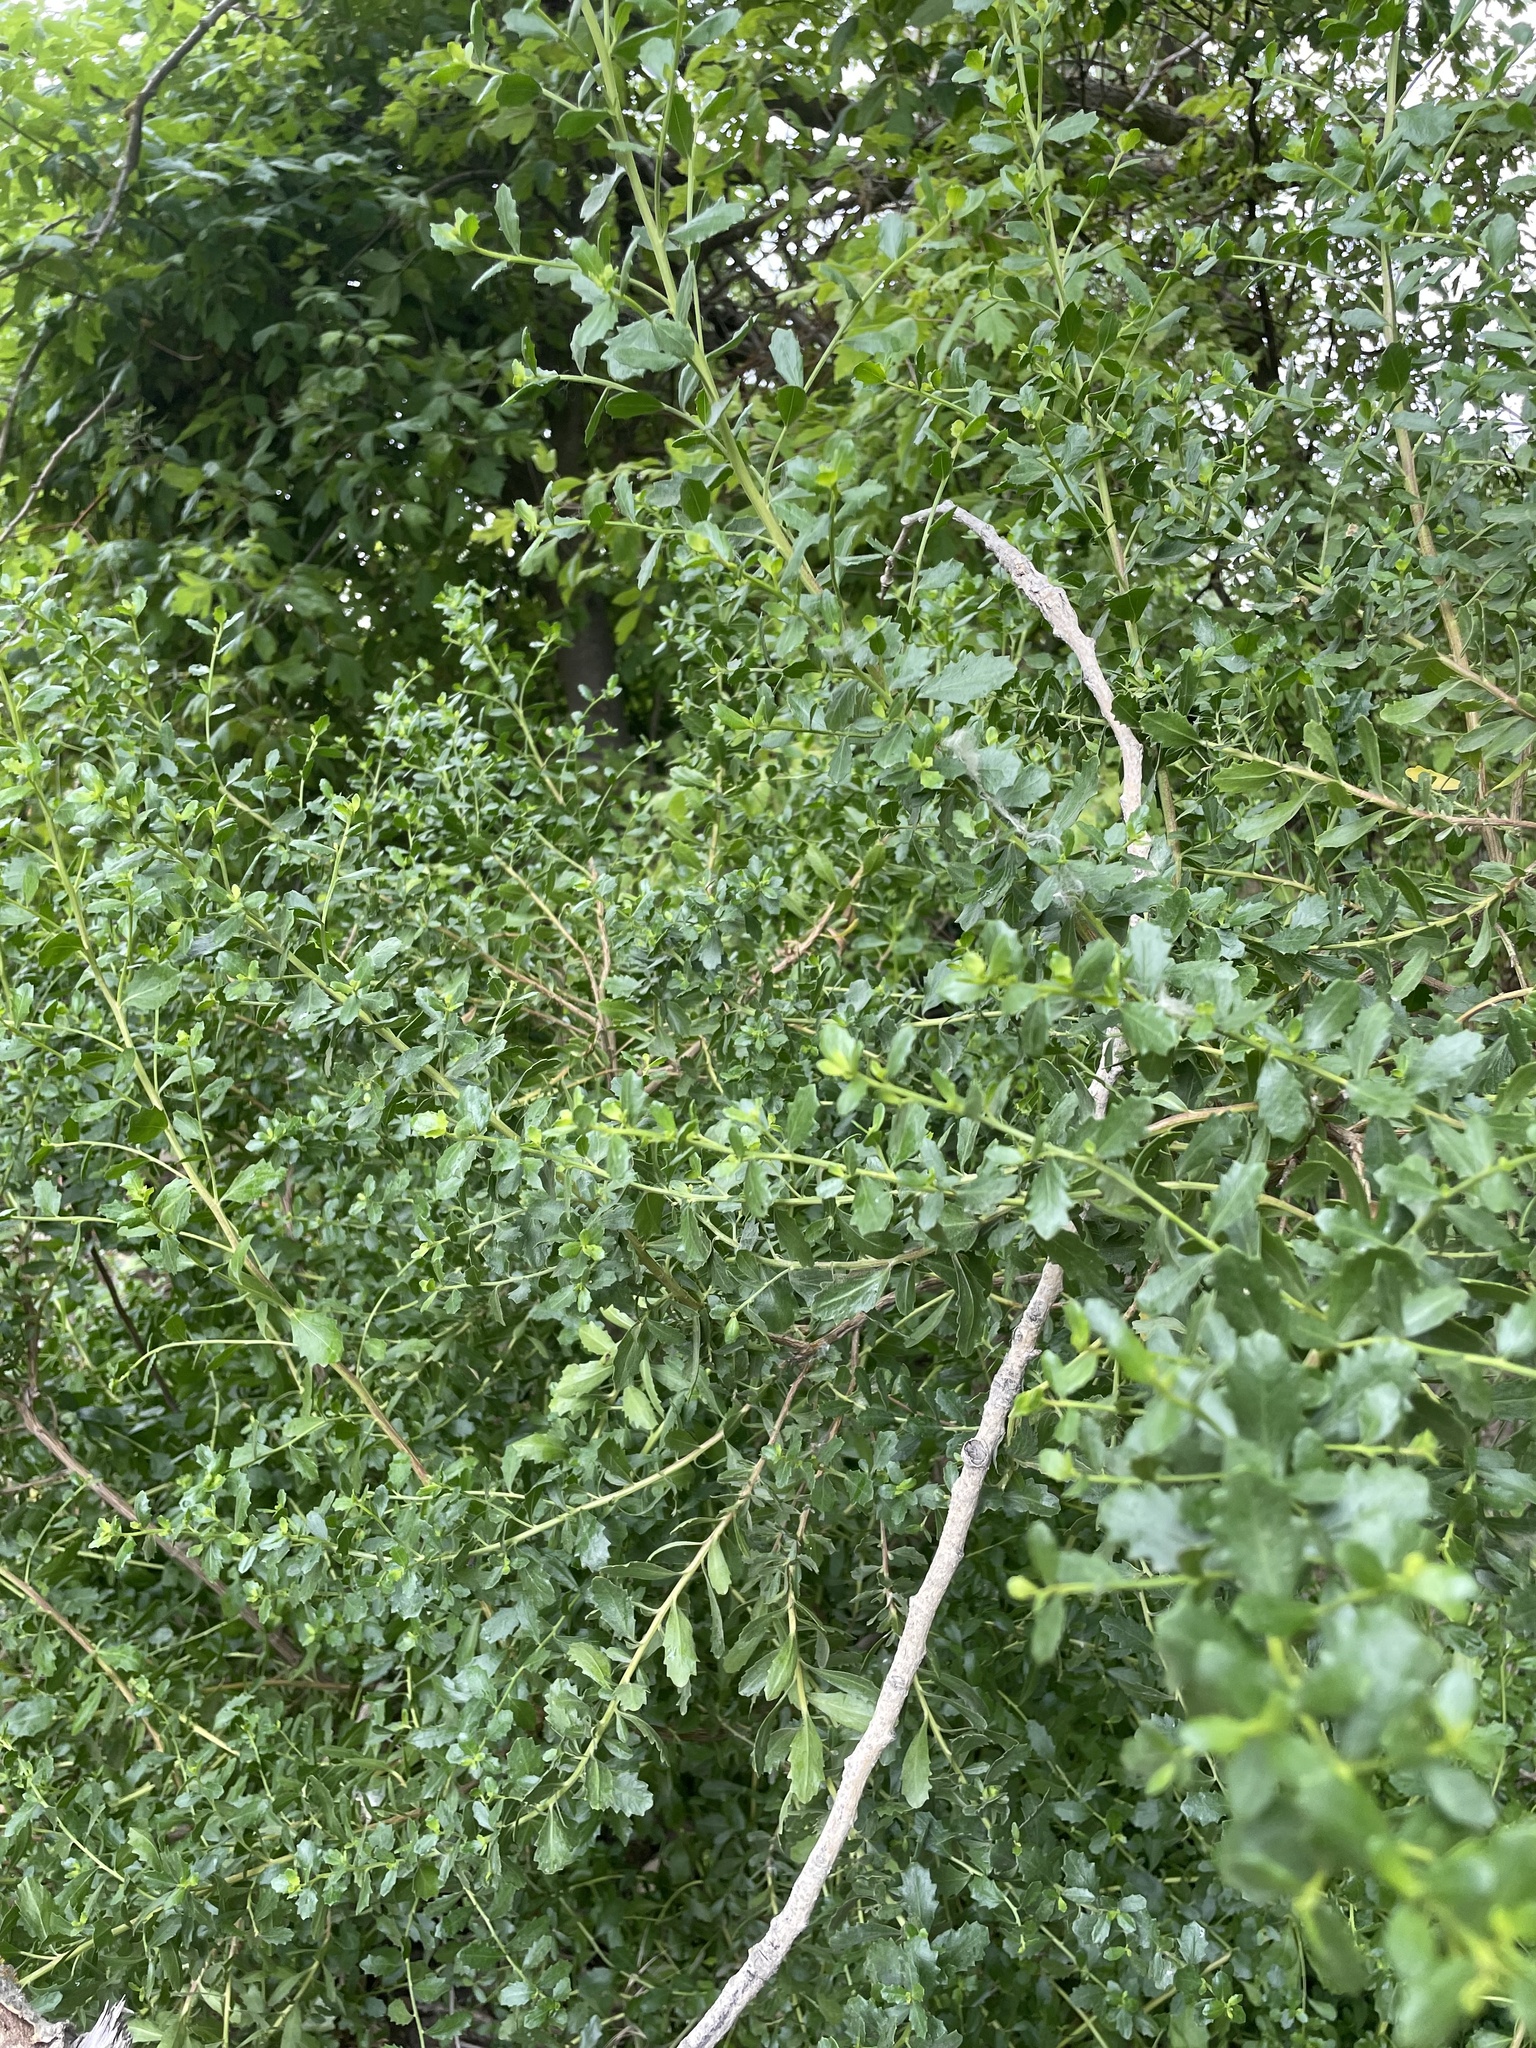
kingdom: Plantae
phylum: Tracheophyta
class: Magnoliopsida
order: Asterales
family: Asteraceae
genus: Baccharis
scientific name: Baccharis pilularis
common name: Coyotebrush
